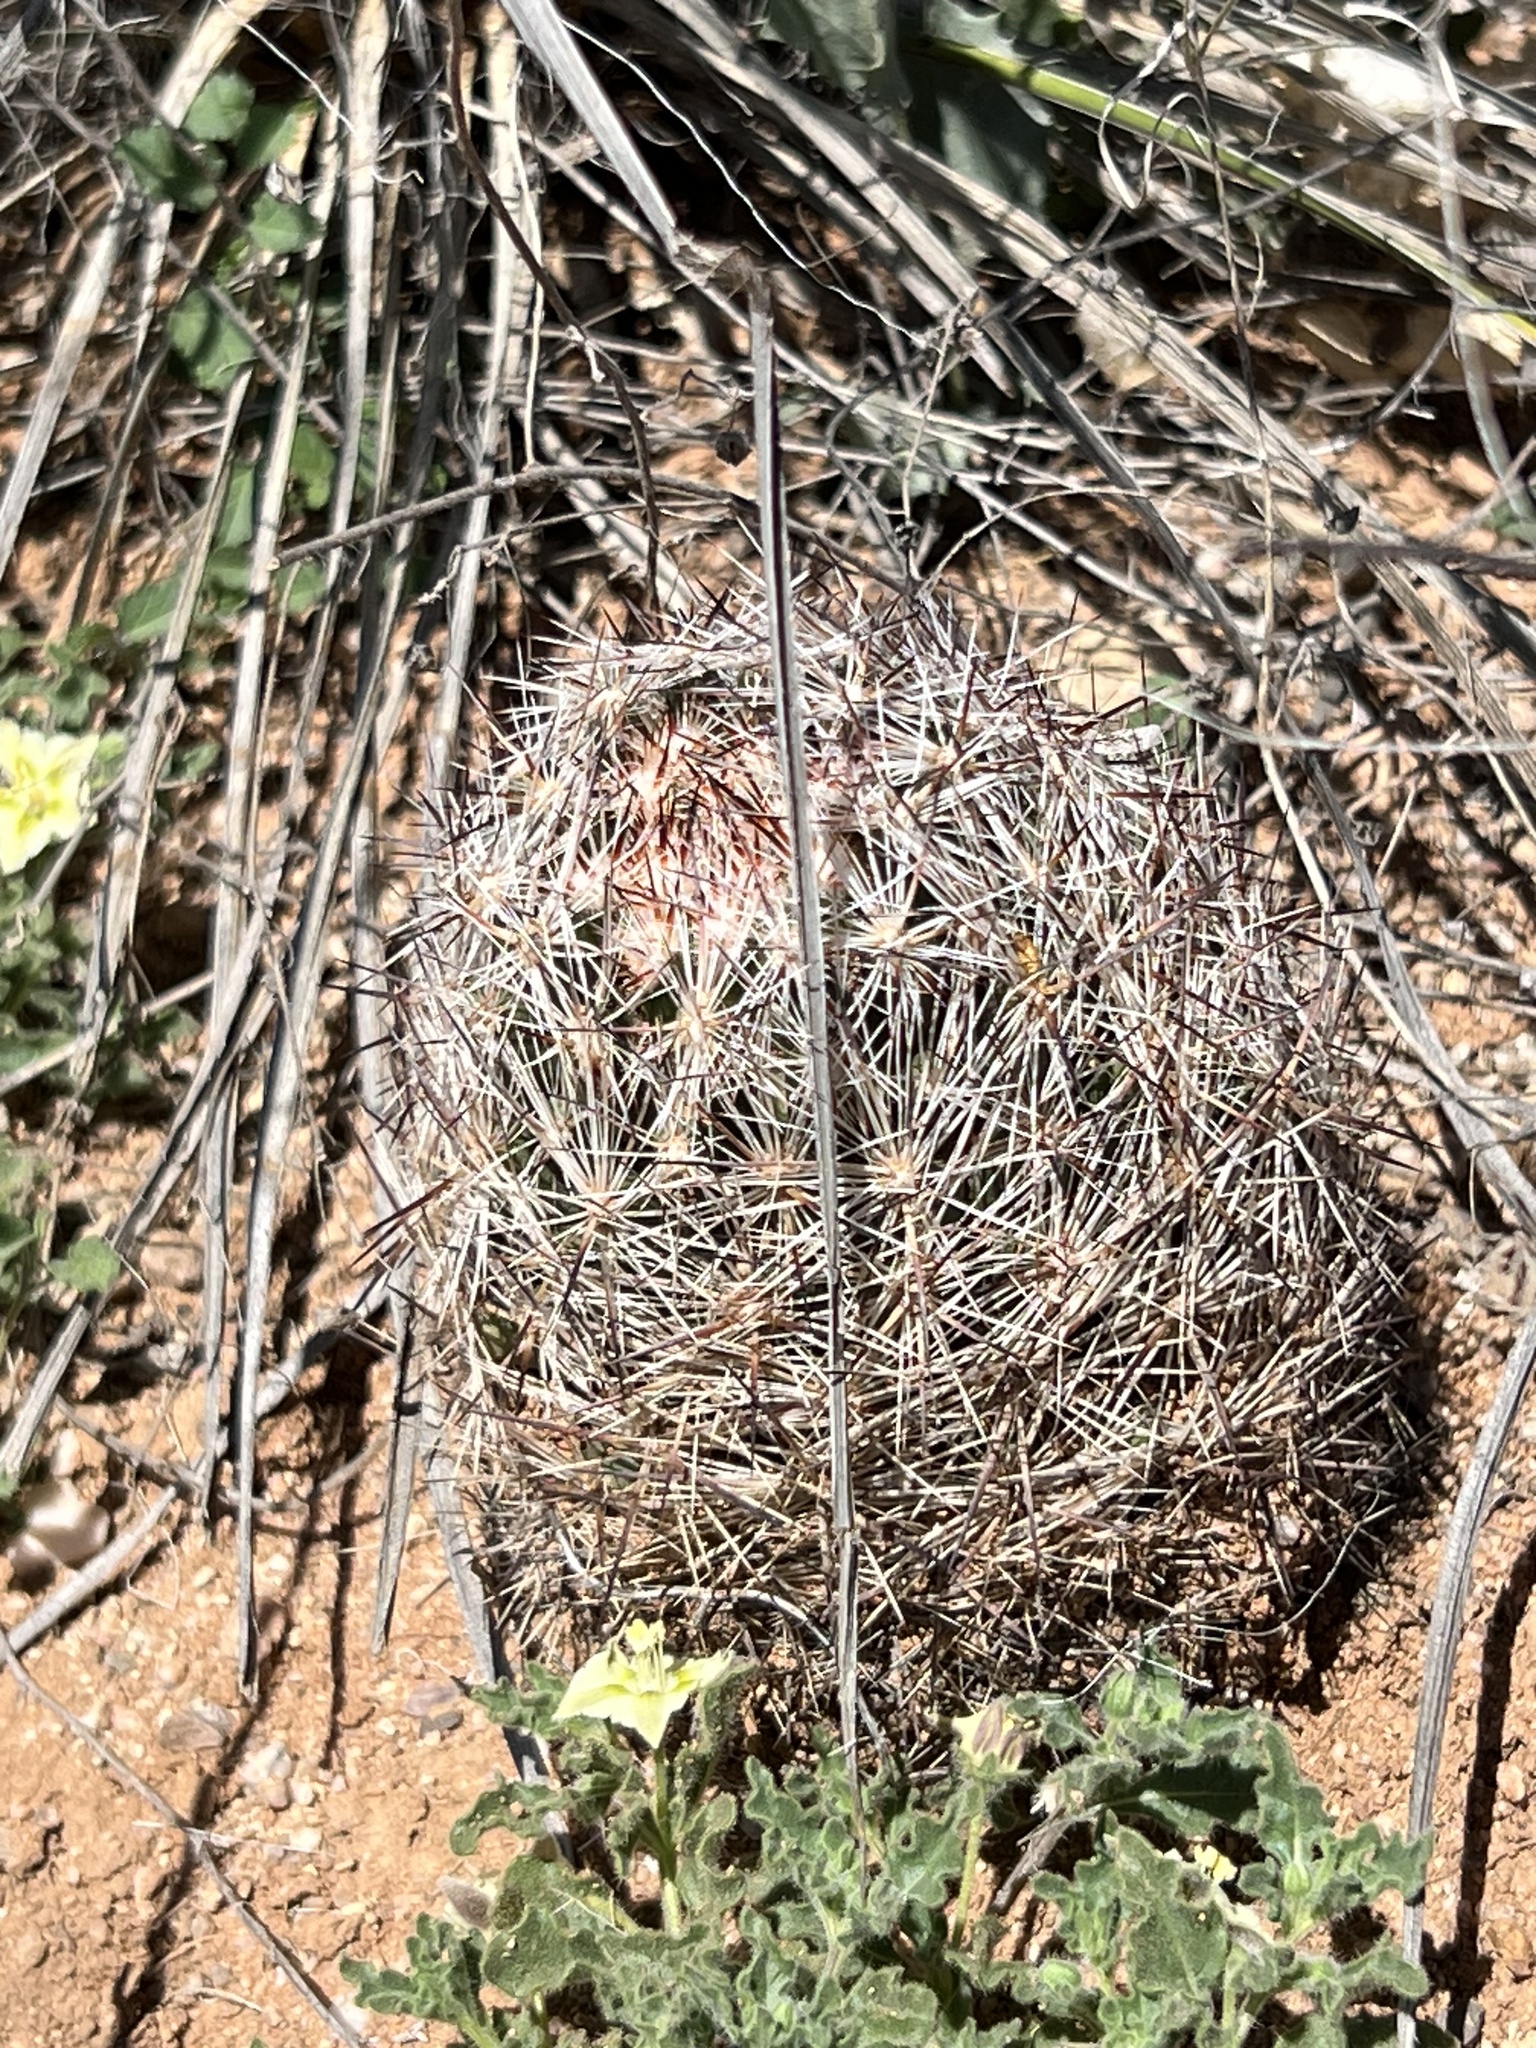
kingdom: Plantae
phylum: Tracheophyta
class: Magnoliopsida
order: Caryophyllales
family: Cactaceae
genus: Pelecyphora
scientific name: Pelecyphora vivipara
